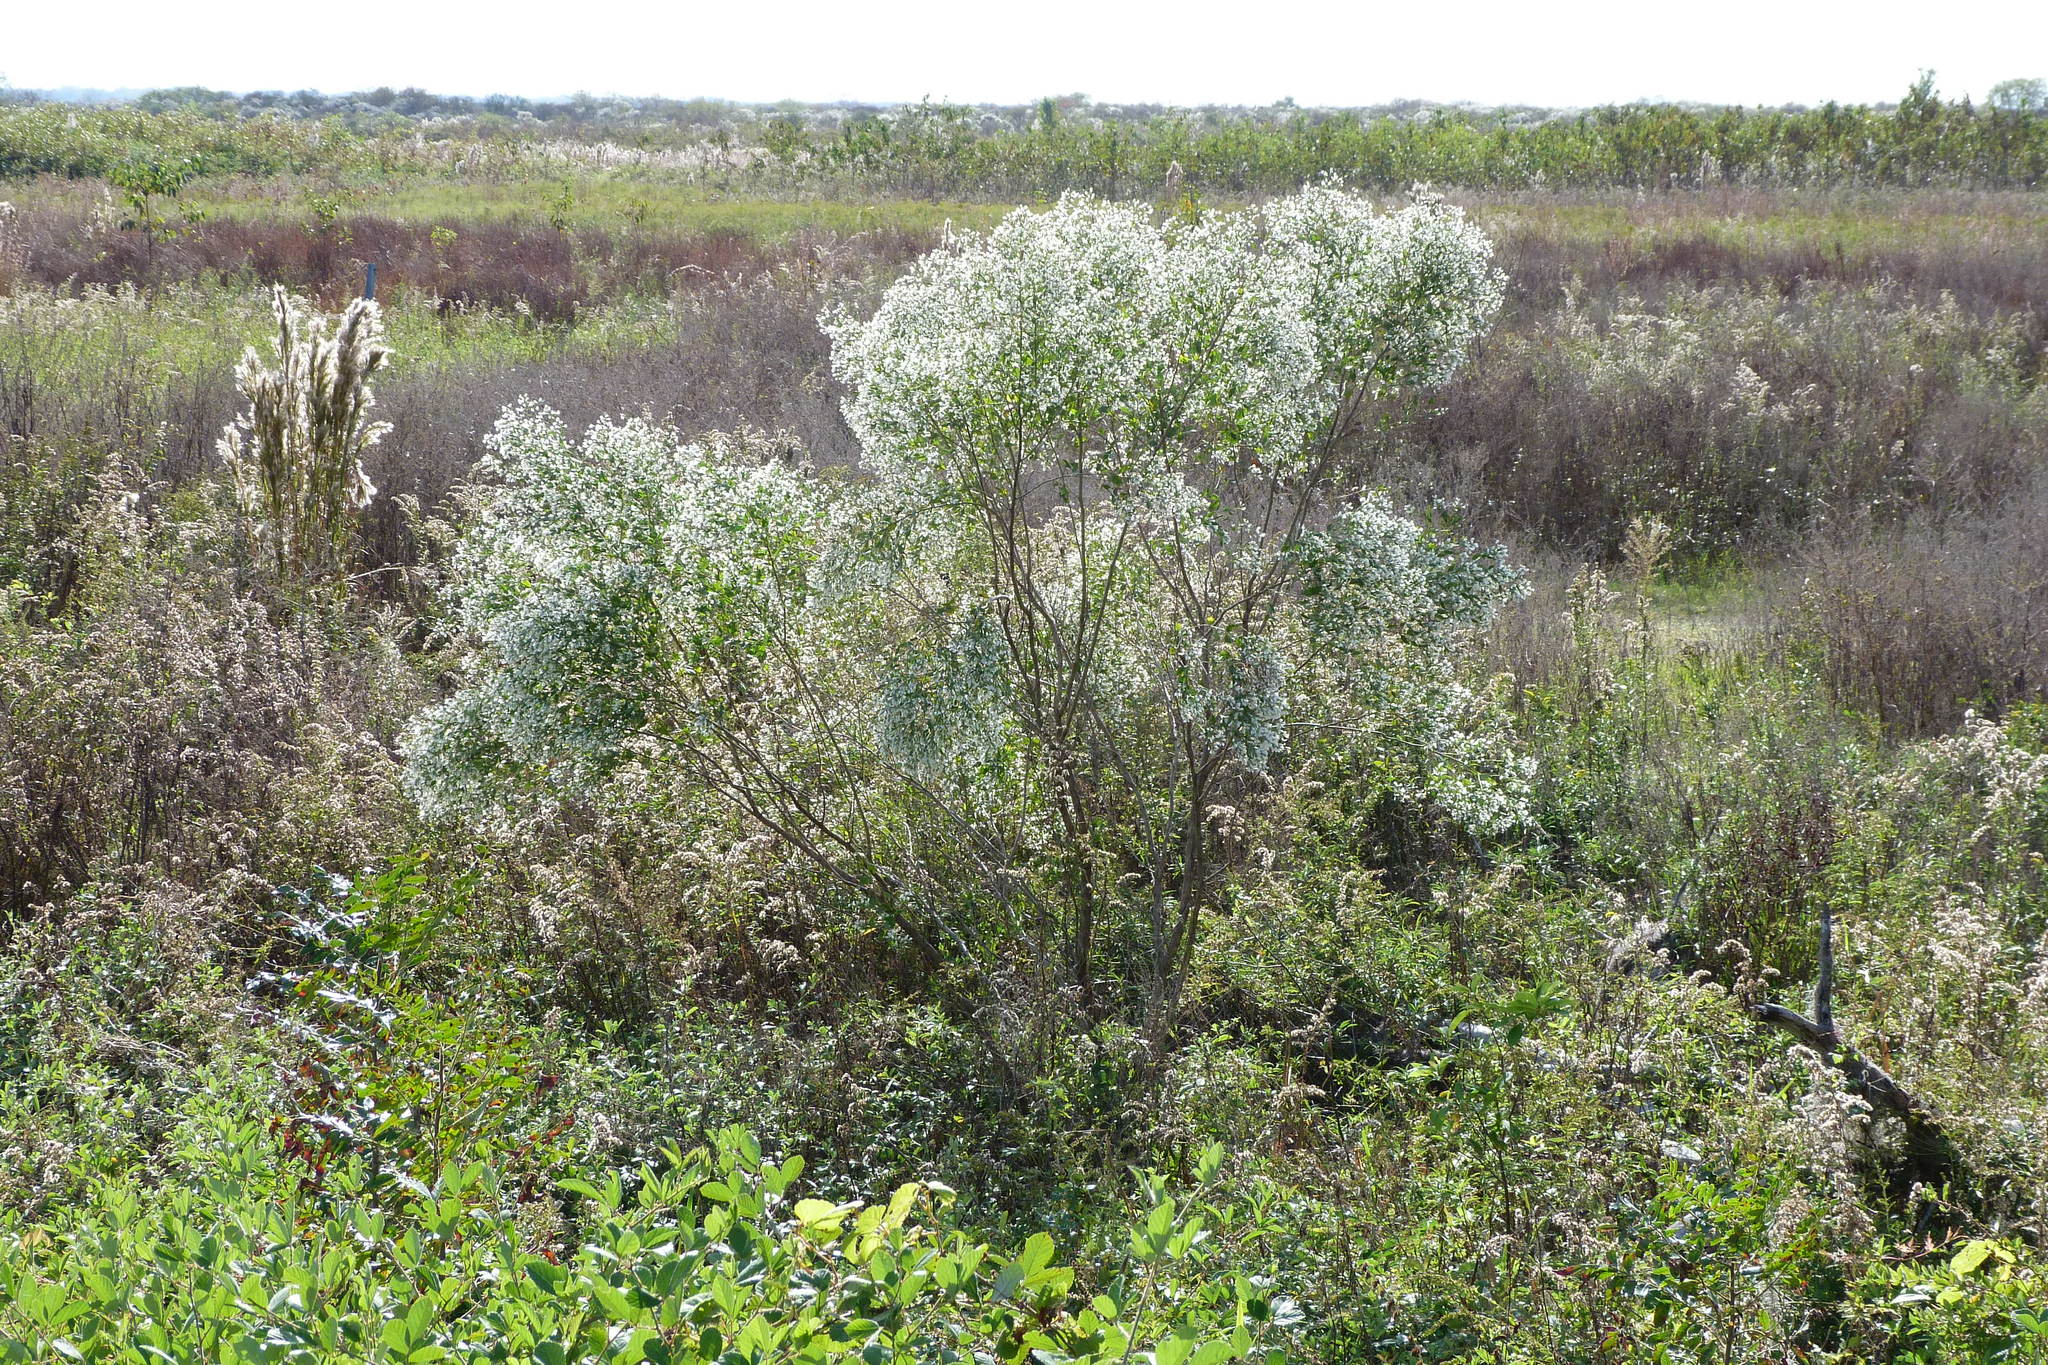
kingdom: Plantae
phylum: Tracheophyta
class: Magnoliopsida
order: Asterales
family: Asteraceae
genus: Baccharis
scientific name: Baccharis halimifolia
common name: Eastern baccharis
